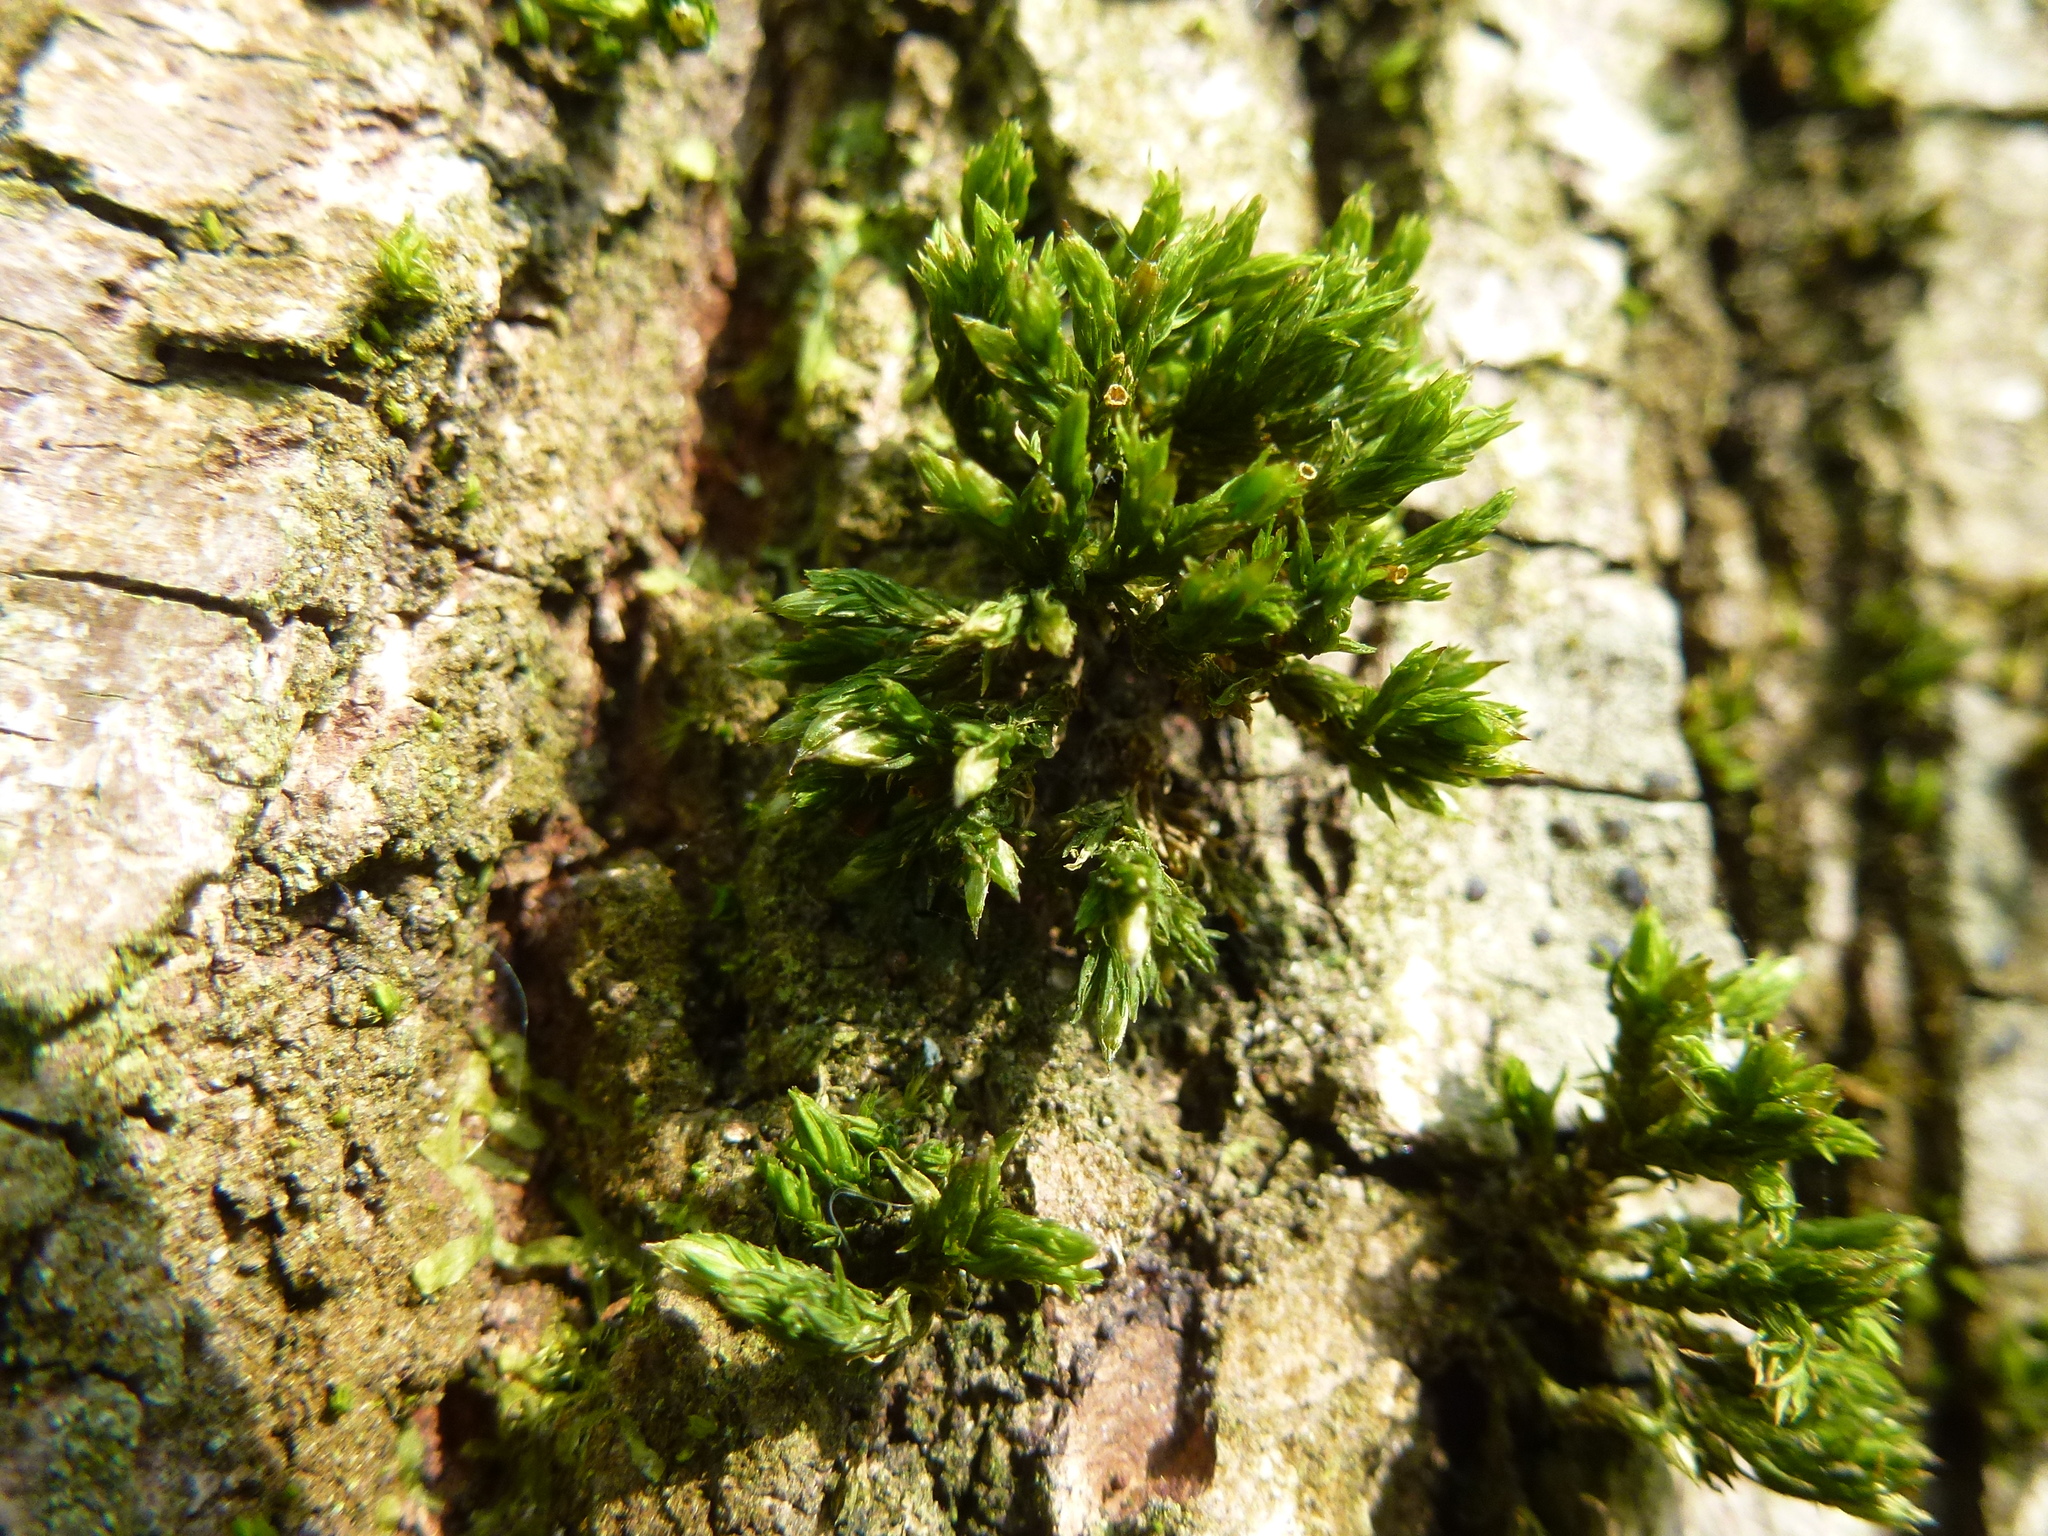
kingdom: Plantae
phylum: Bryophyta
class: Bryopsida
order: Orthotrichales
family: Orthotrichaceae
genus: Orthotrichum
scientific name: Orthotrichum stramineum
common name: Straw bristle-moss
